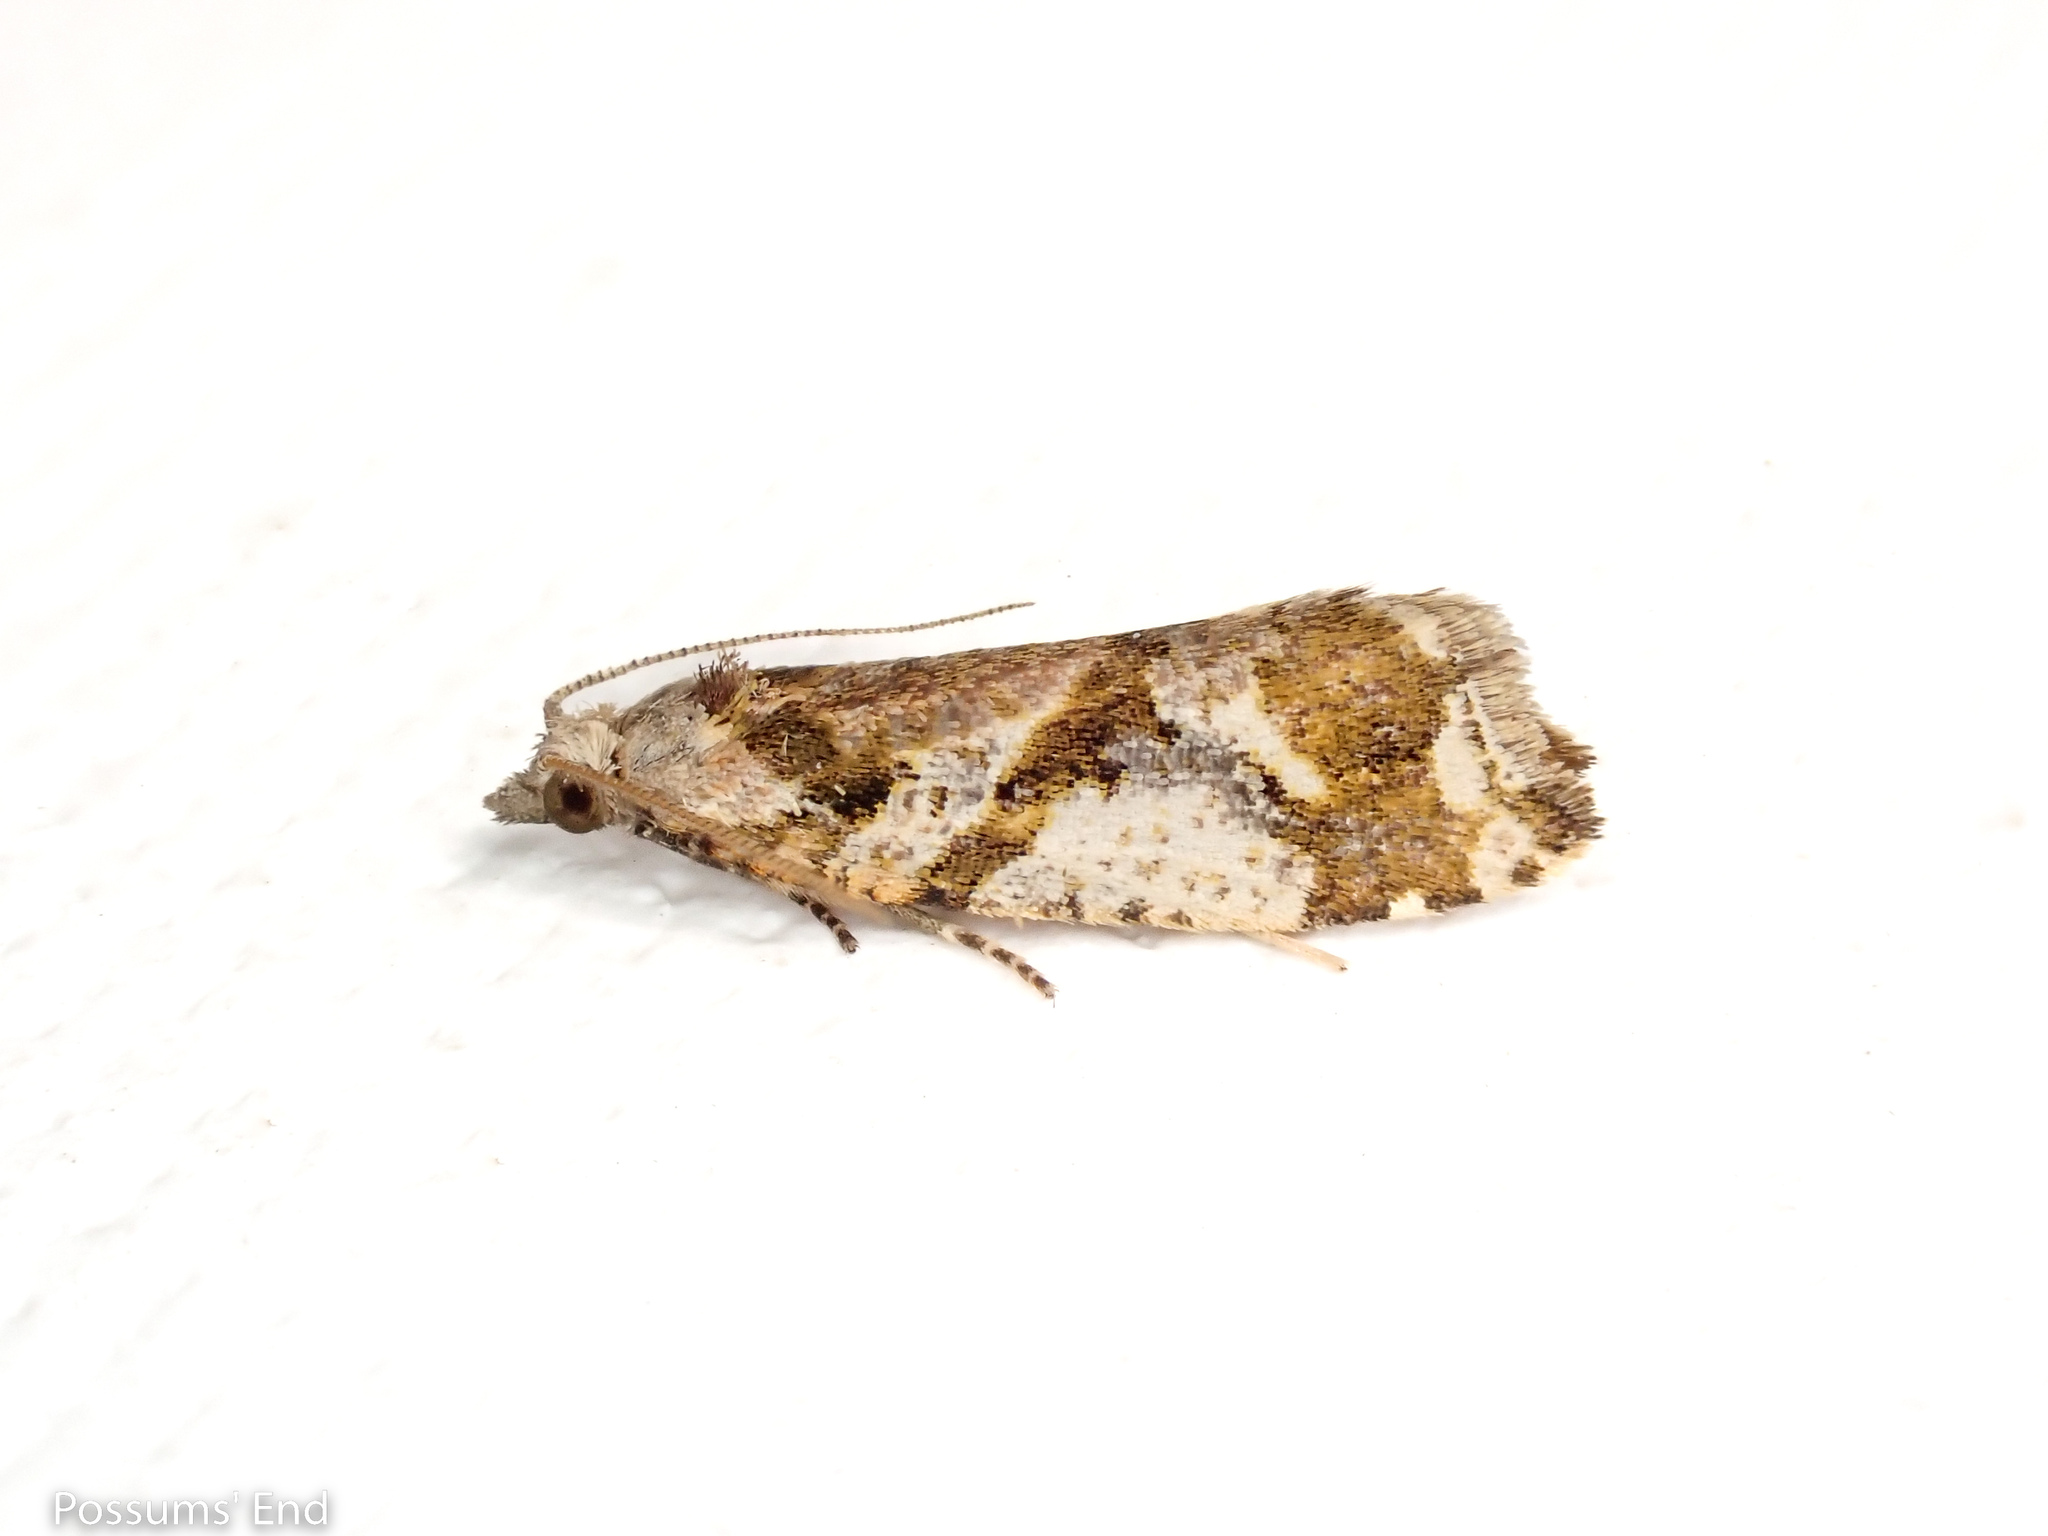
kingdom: Animalia
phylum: Arthropoda
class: Insecta
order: Lepidoptera
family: Tortricidae
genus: Pyrgotis
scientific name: Pyrgotis plagiatana
